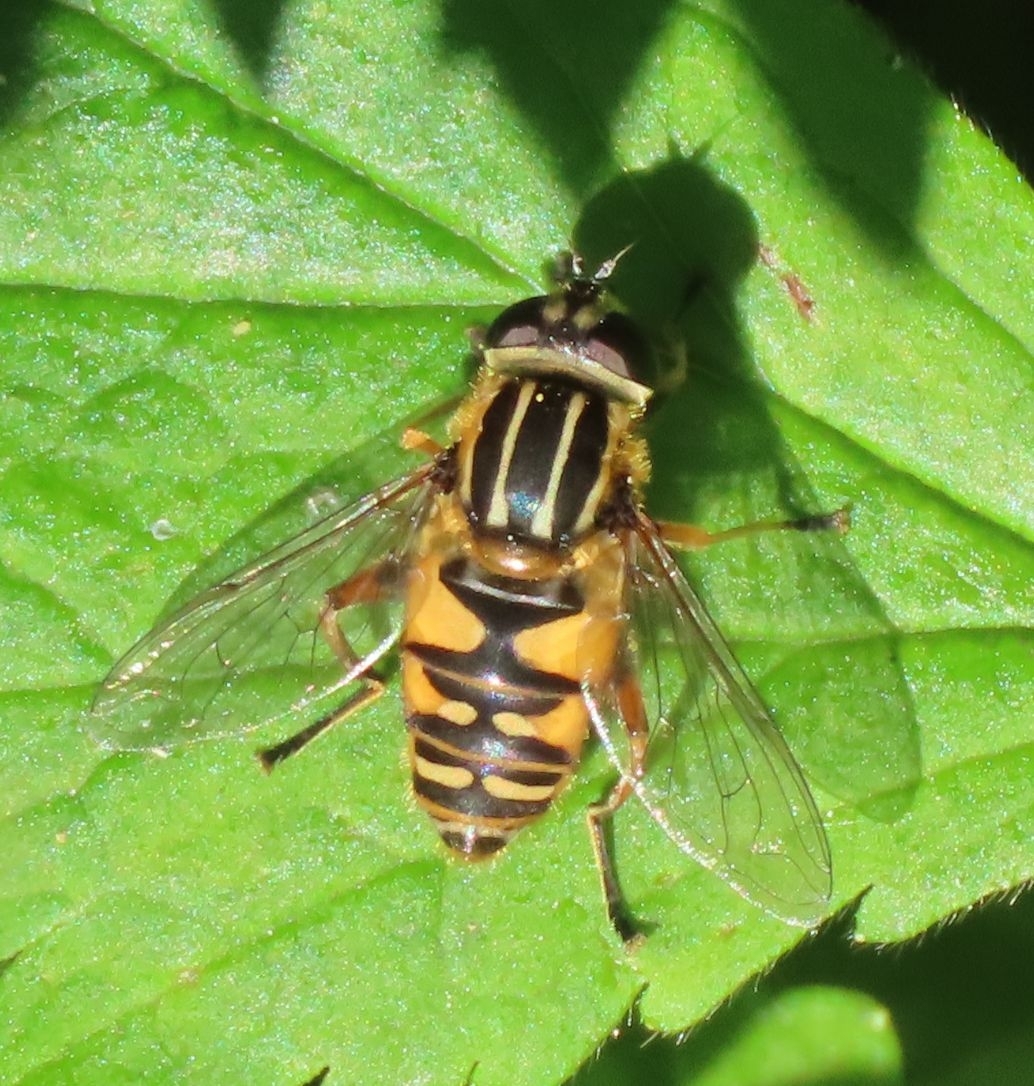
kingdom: Animalia
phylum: Arthropoda
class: Insecta
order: Diptera
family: Syrphidae
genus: Helophilus
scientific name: Helophilus pendulus
